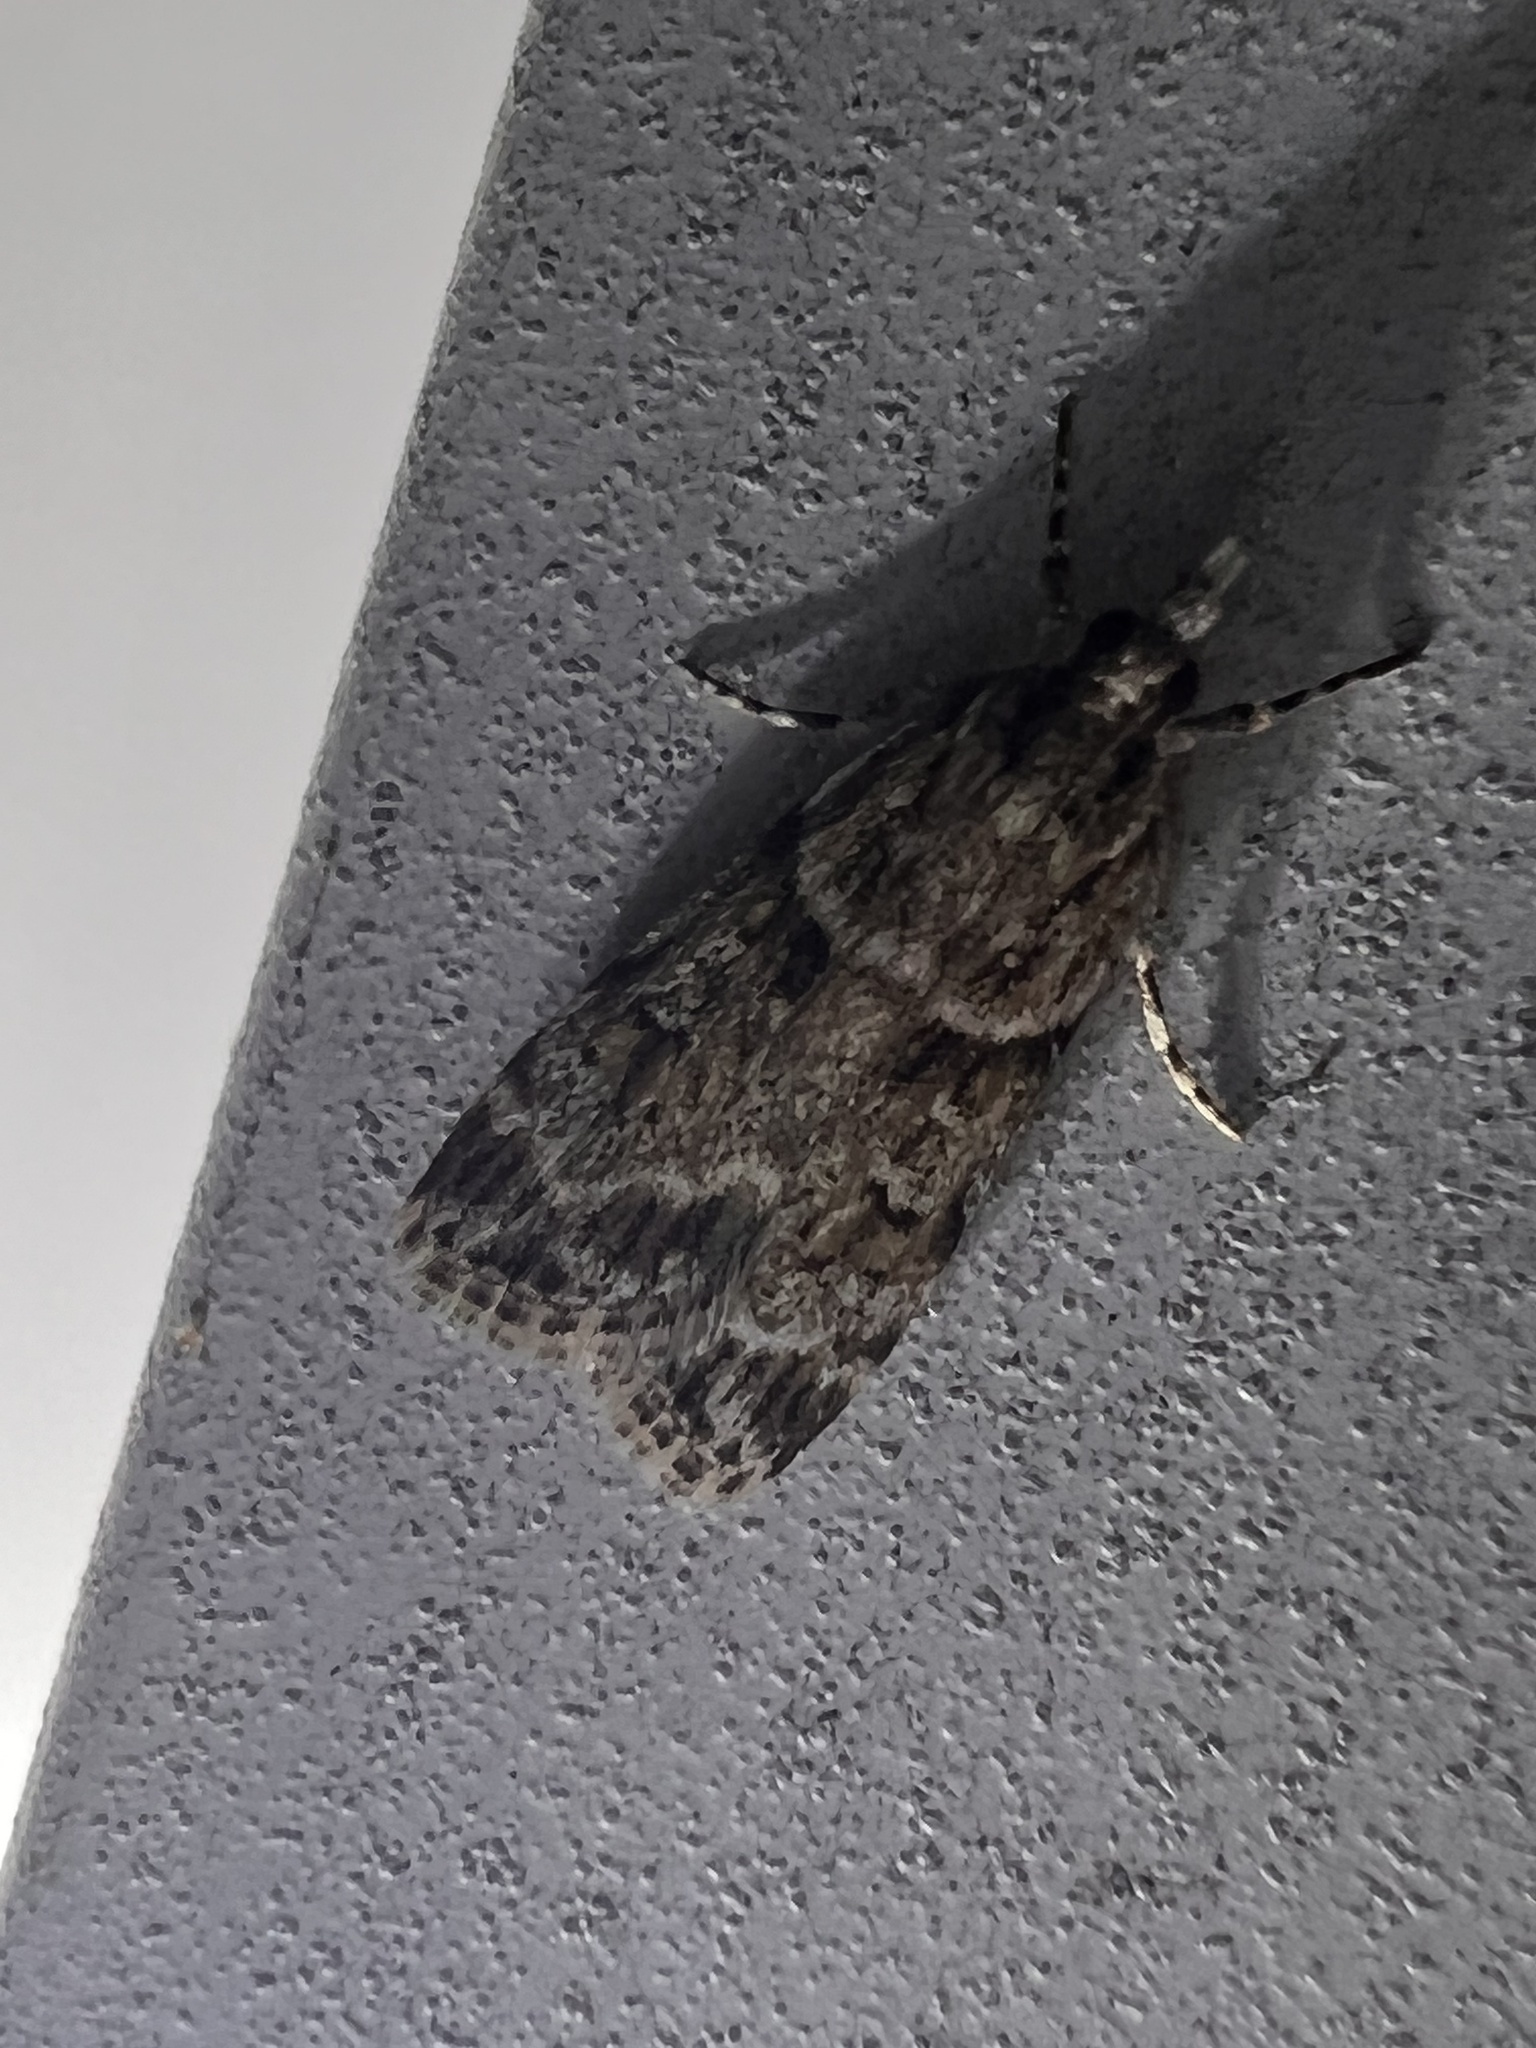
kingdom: Animalia
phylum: Arthropoda
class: Insecta
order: Lepidoptera
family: Crambidae
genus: Scoparia
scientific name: Scoparia biplagialis
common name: Double-striped scoparia moth
